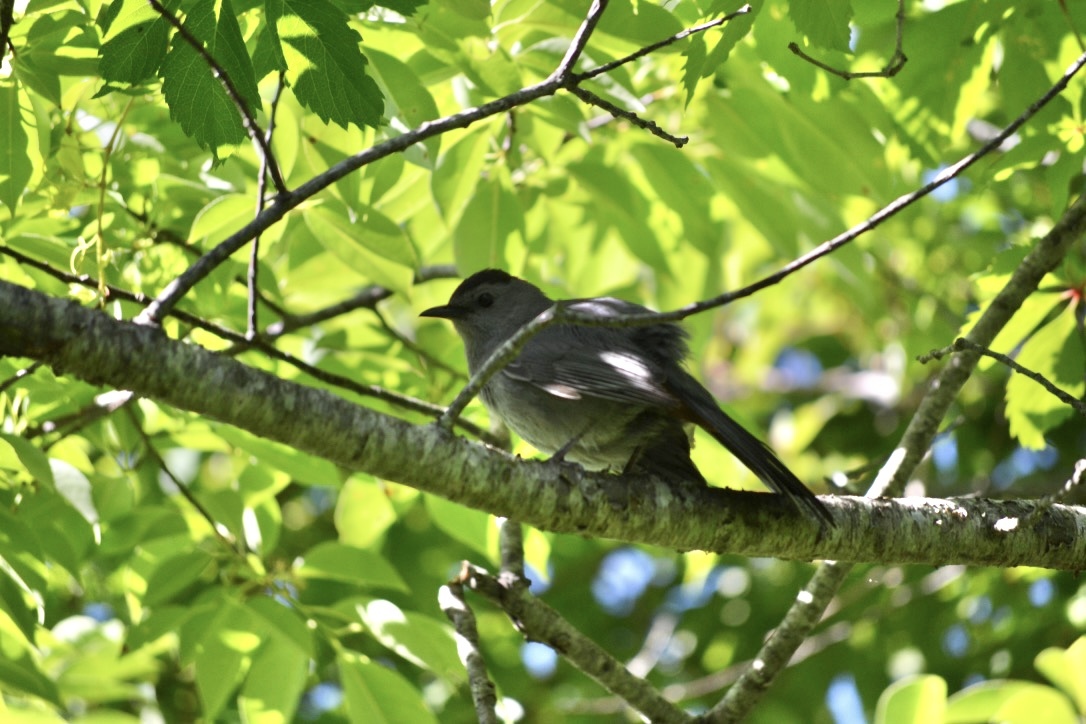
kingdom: Animalia
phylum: Chordata
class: Aves
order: Passeriformes
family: Mimidae
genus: Dumetella
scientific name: Dumetella carolinensis
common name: Gray catbird
